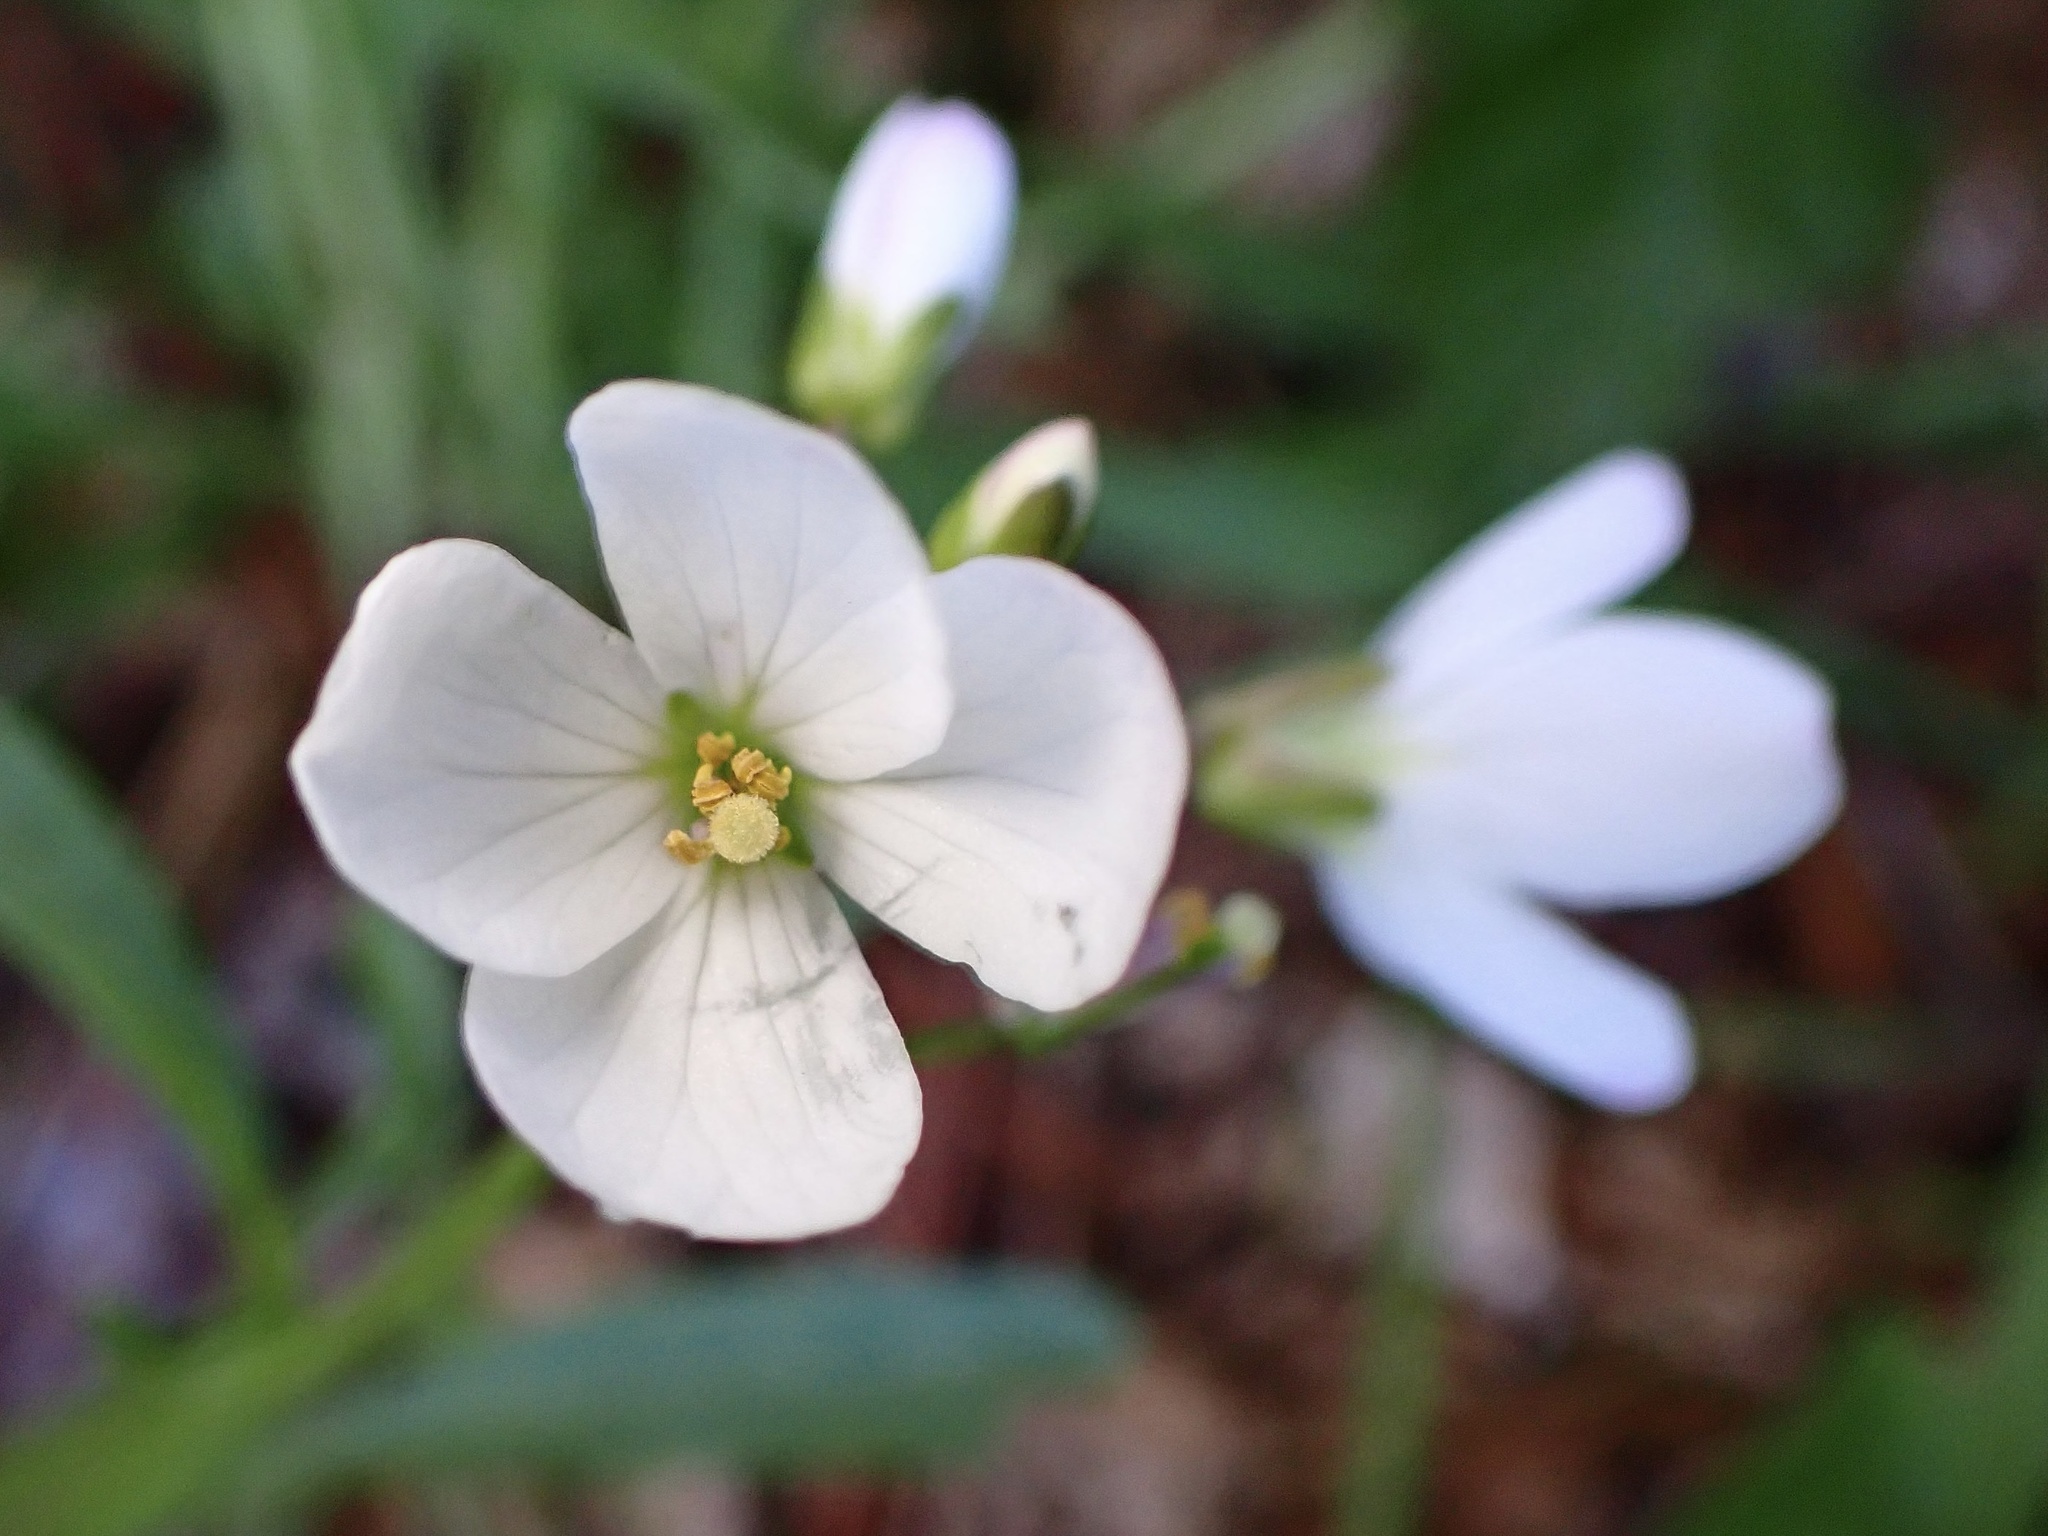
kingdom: Plantae
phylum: Tracheophyta
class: Magnoliopsida
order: Brassicales
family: Brassicaceae
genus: Cardamine
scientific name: Cardamine californica
